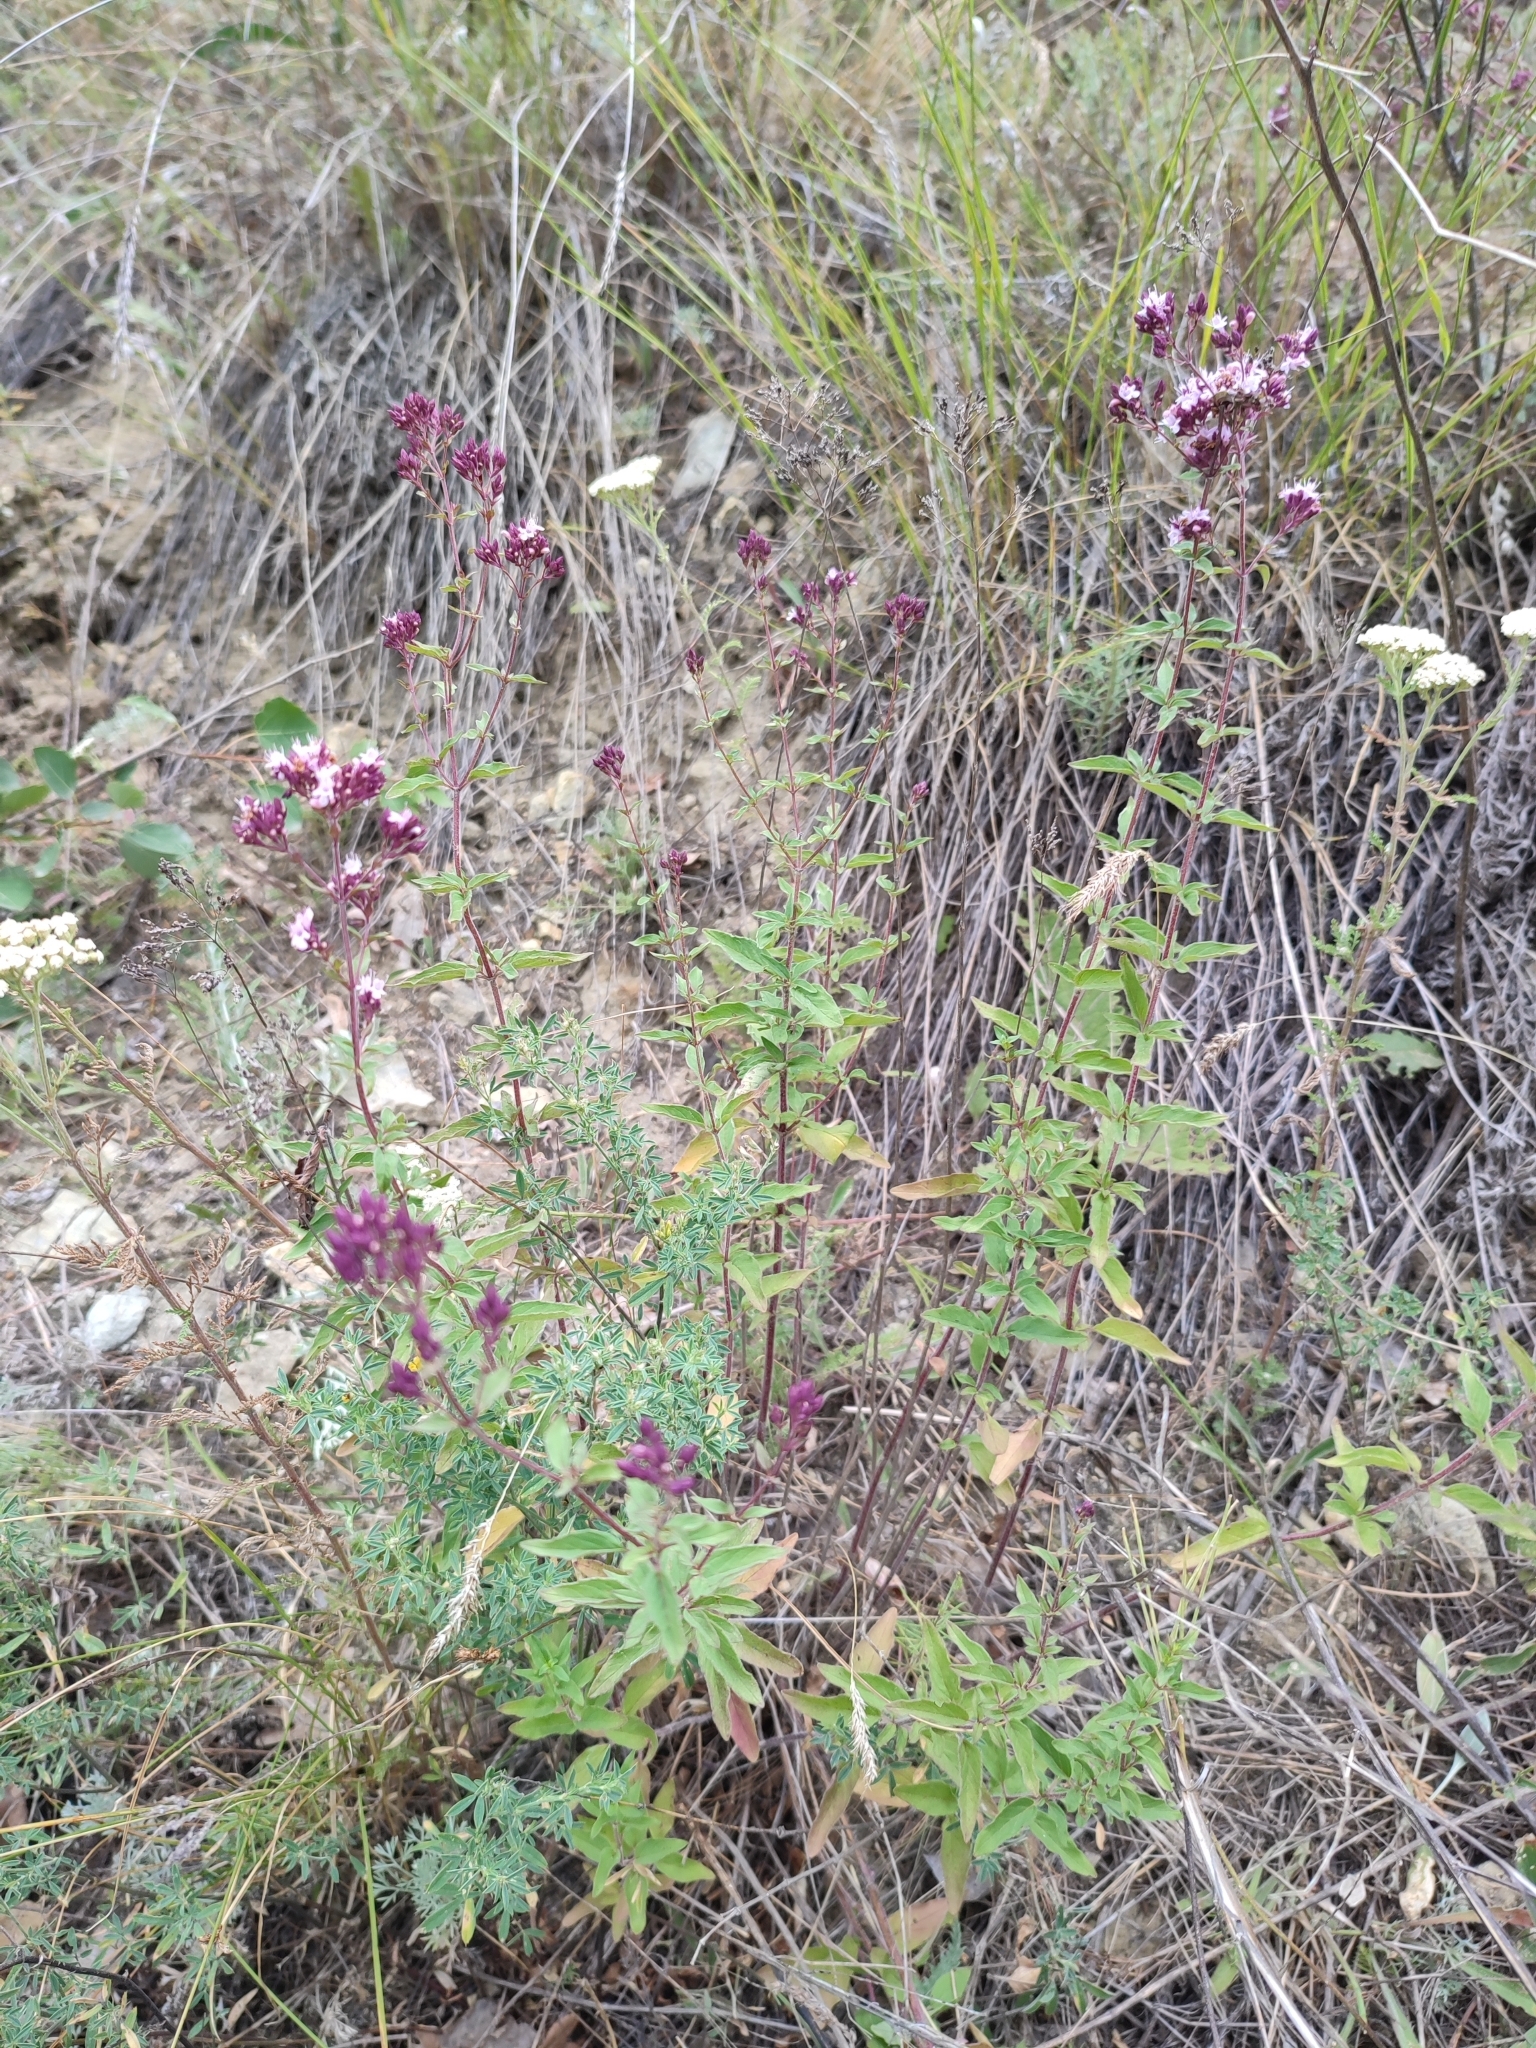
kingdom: Plantae
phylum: Tracheophyta
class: Magnoliopsida
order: Lamiales
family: Lamiaceae
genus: Origanum
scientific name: Origanum vulgare
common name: Wild marjoram
